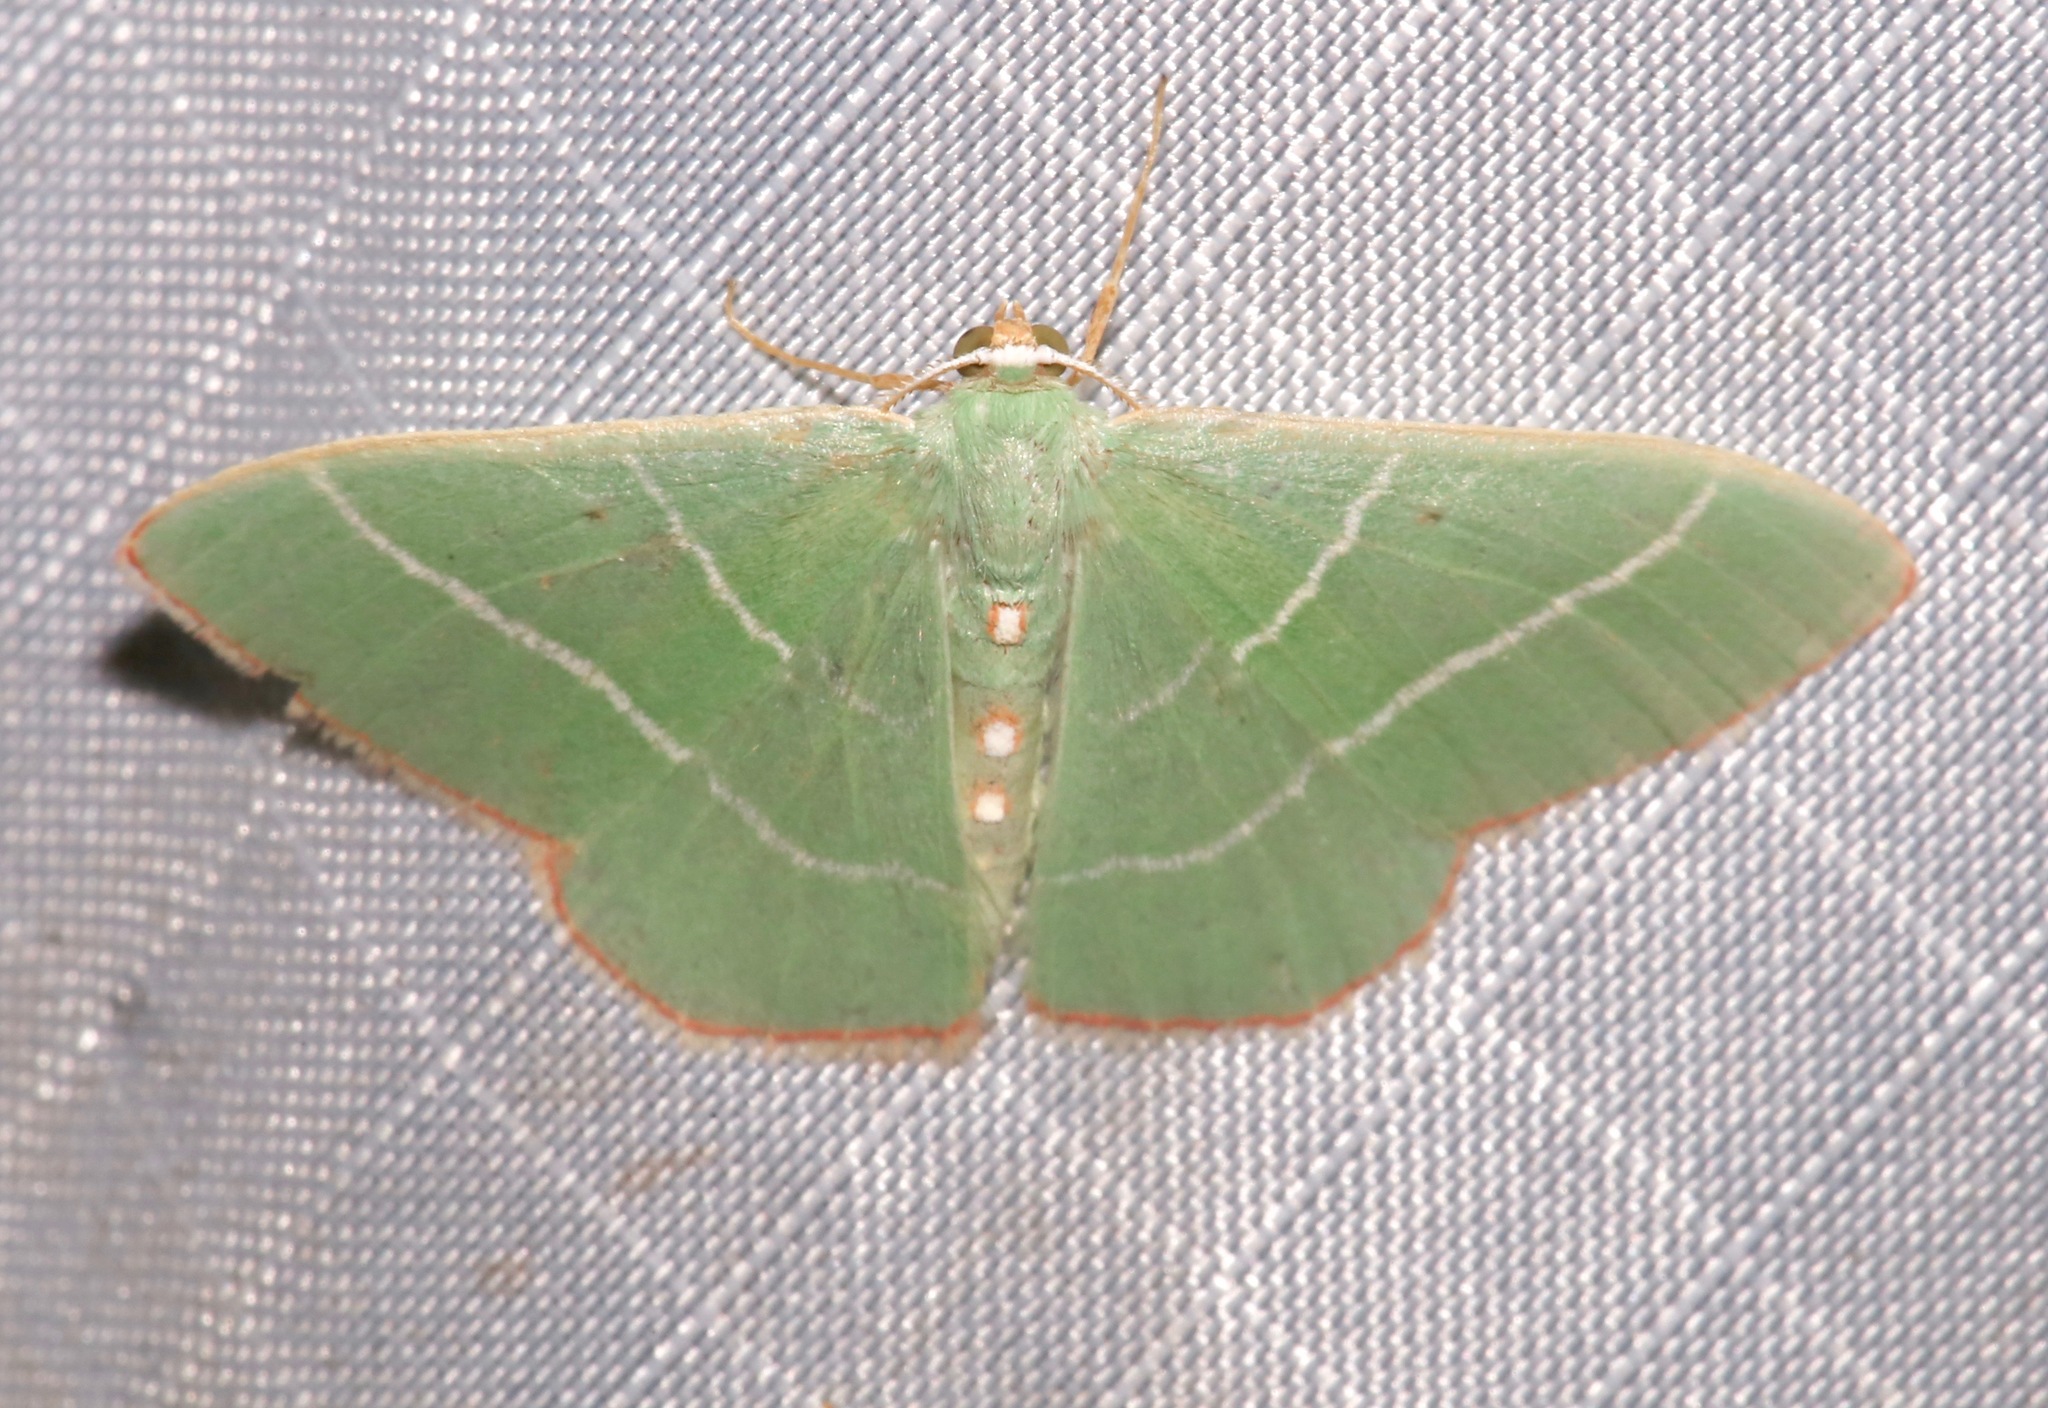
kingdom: Animalia
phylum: Arthropoda
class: Insecta
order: Lepidoptera
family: Geometridae
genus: Nemoria
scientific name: Nemoria obliqua
